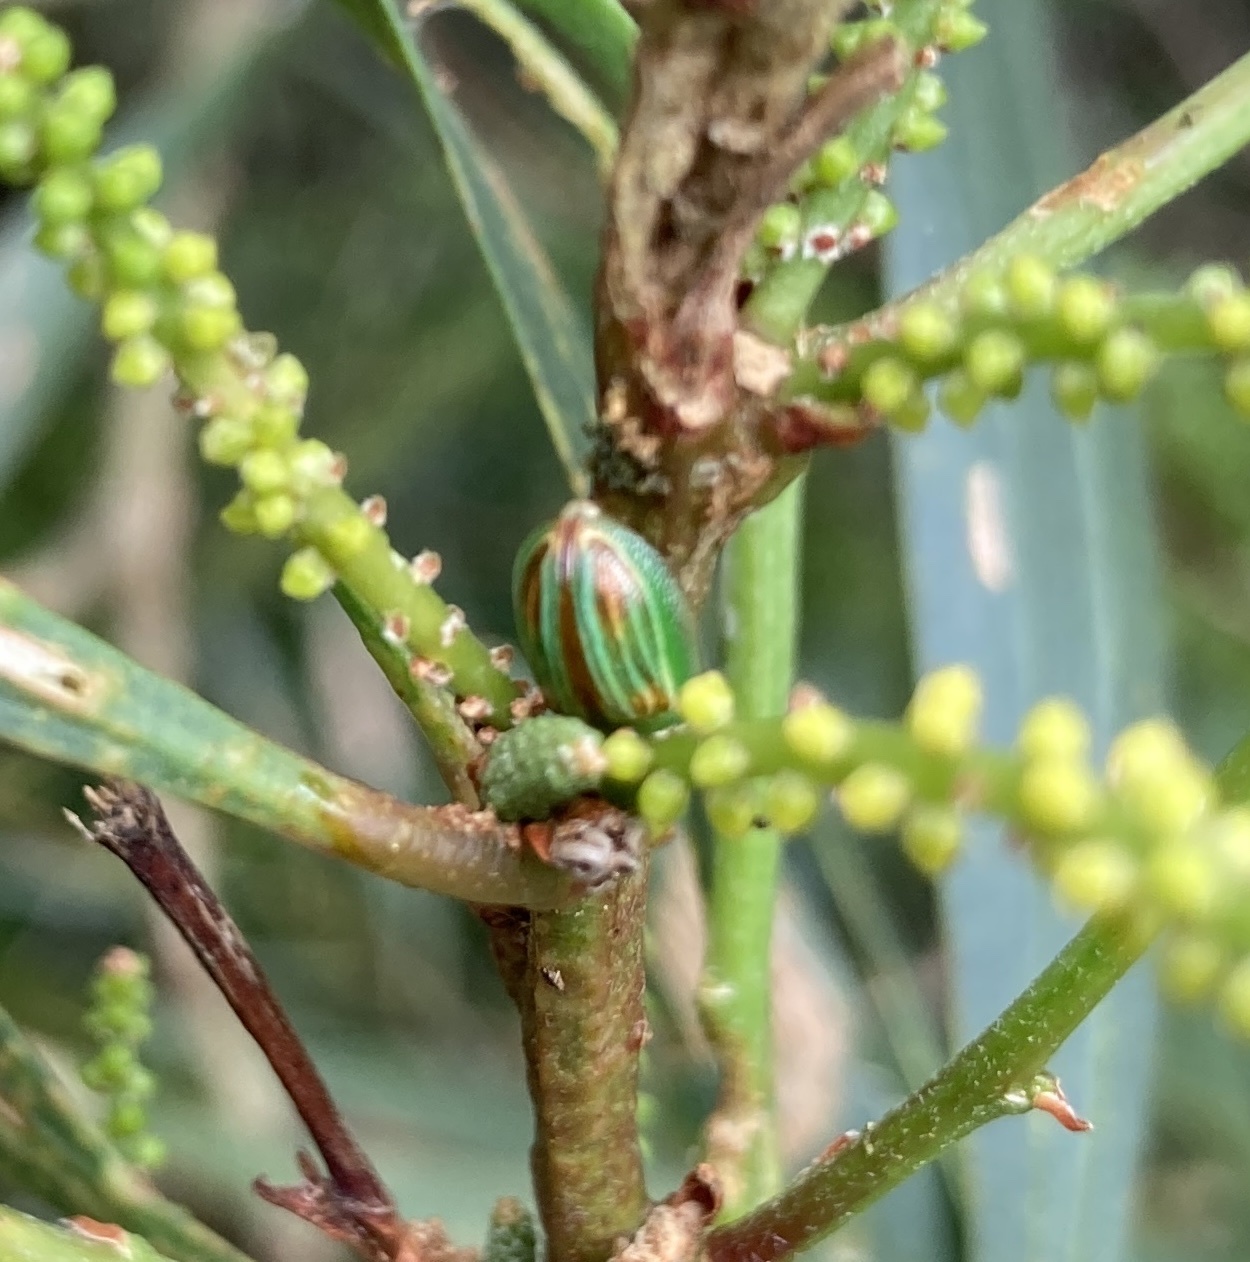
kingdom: Animalia
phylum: Arthropoda
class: Insecta
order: Coleoptera
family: Chrysomelidae
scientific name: Chrysomelidae
